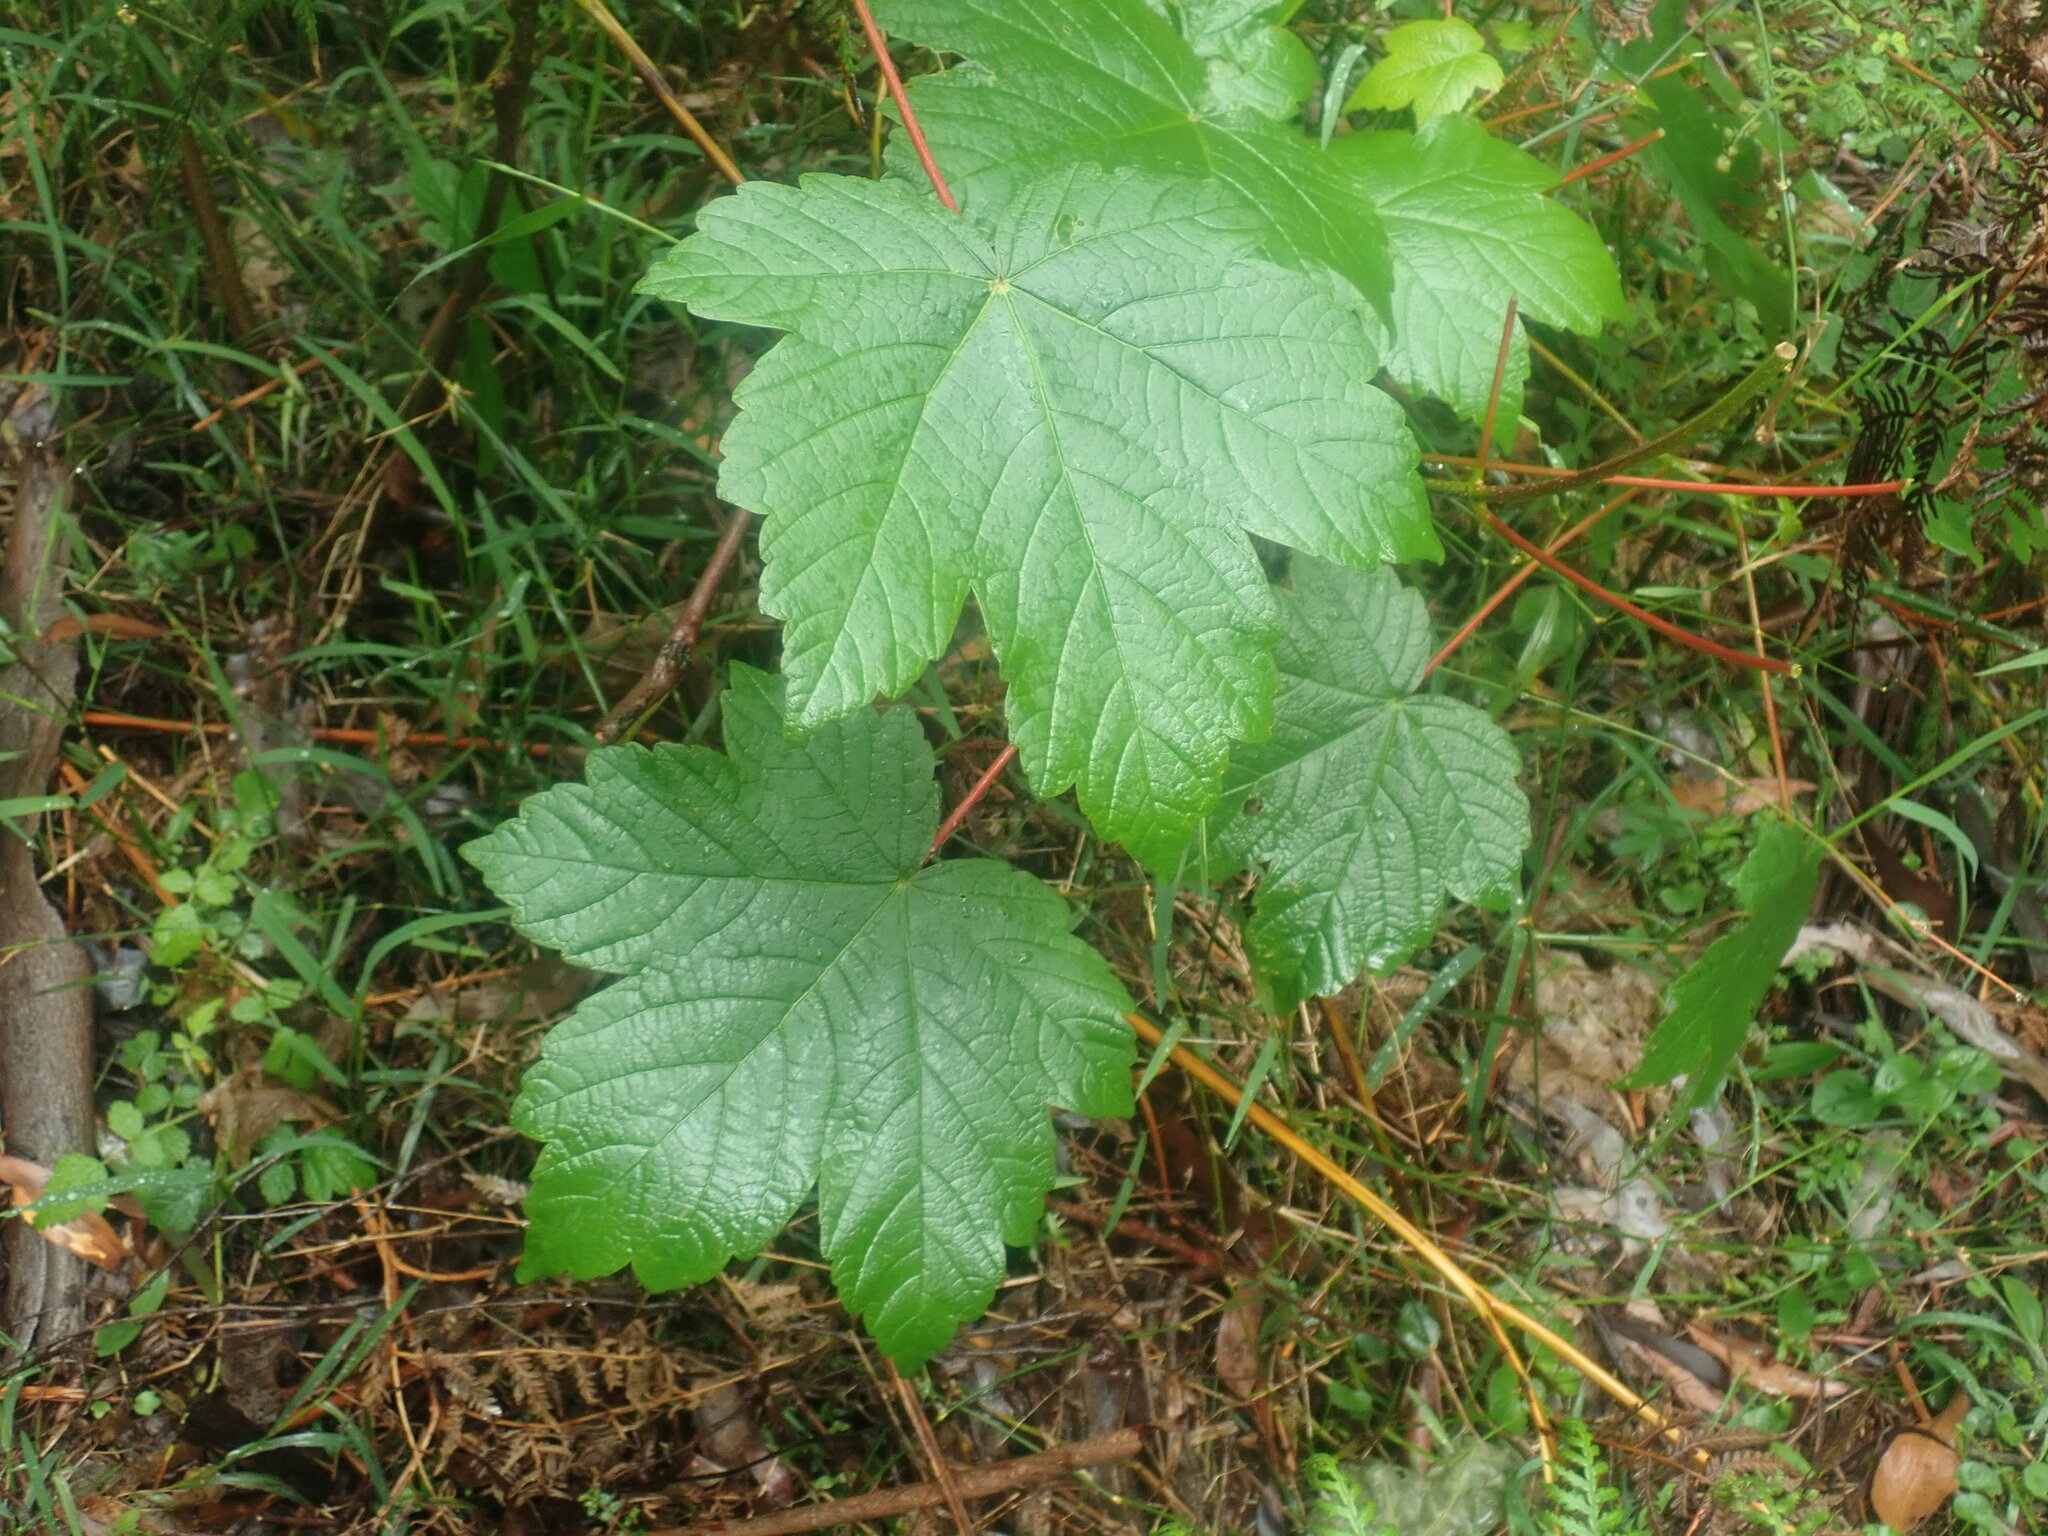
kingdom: Plantae
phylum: Tracheophyta
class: Magnoliopsida
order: Sapindales
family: Sapindaceae
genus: Acer
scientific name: Acer pseudoplatanus
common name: Sycamore
